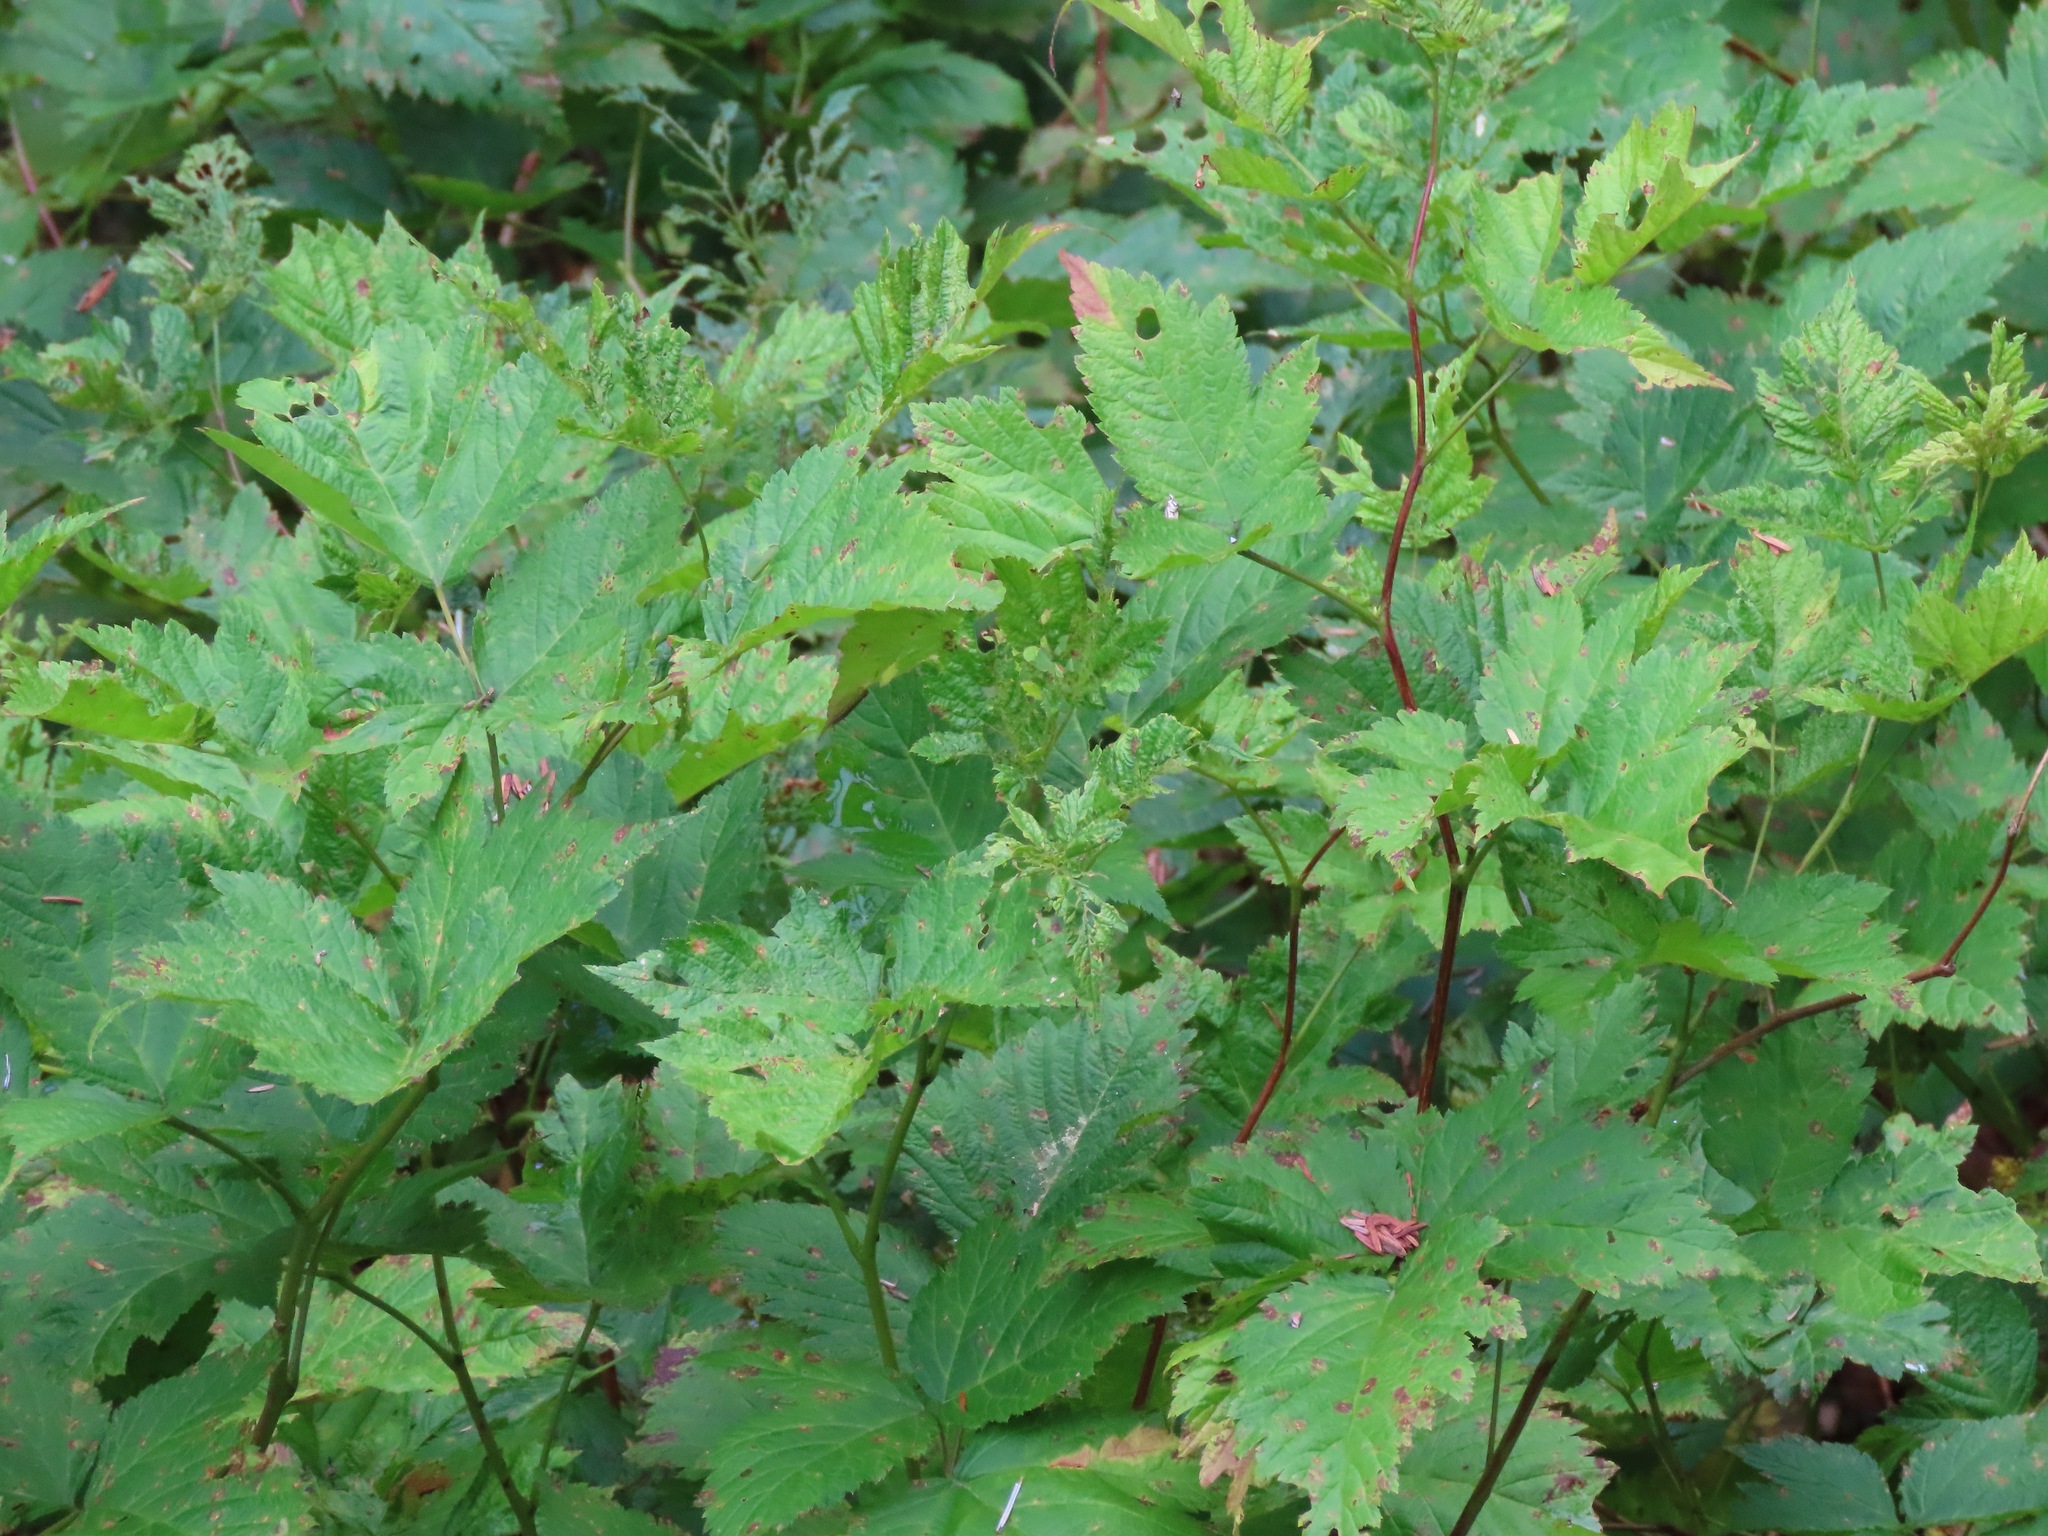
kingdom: Plantae
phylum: Tracheophyta
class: Magnoliopsida
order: Rosales
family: Rosaceae
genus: Rubus
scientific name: Rubus spectabilis
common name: Salmonberry
